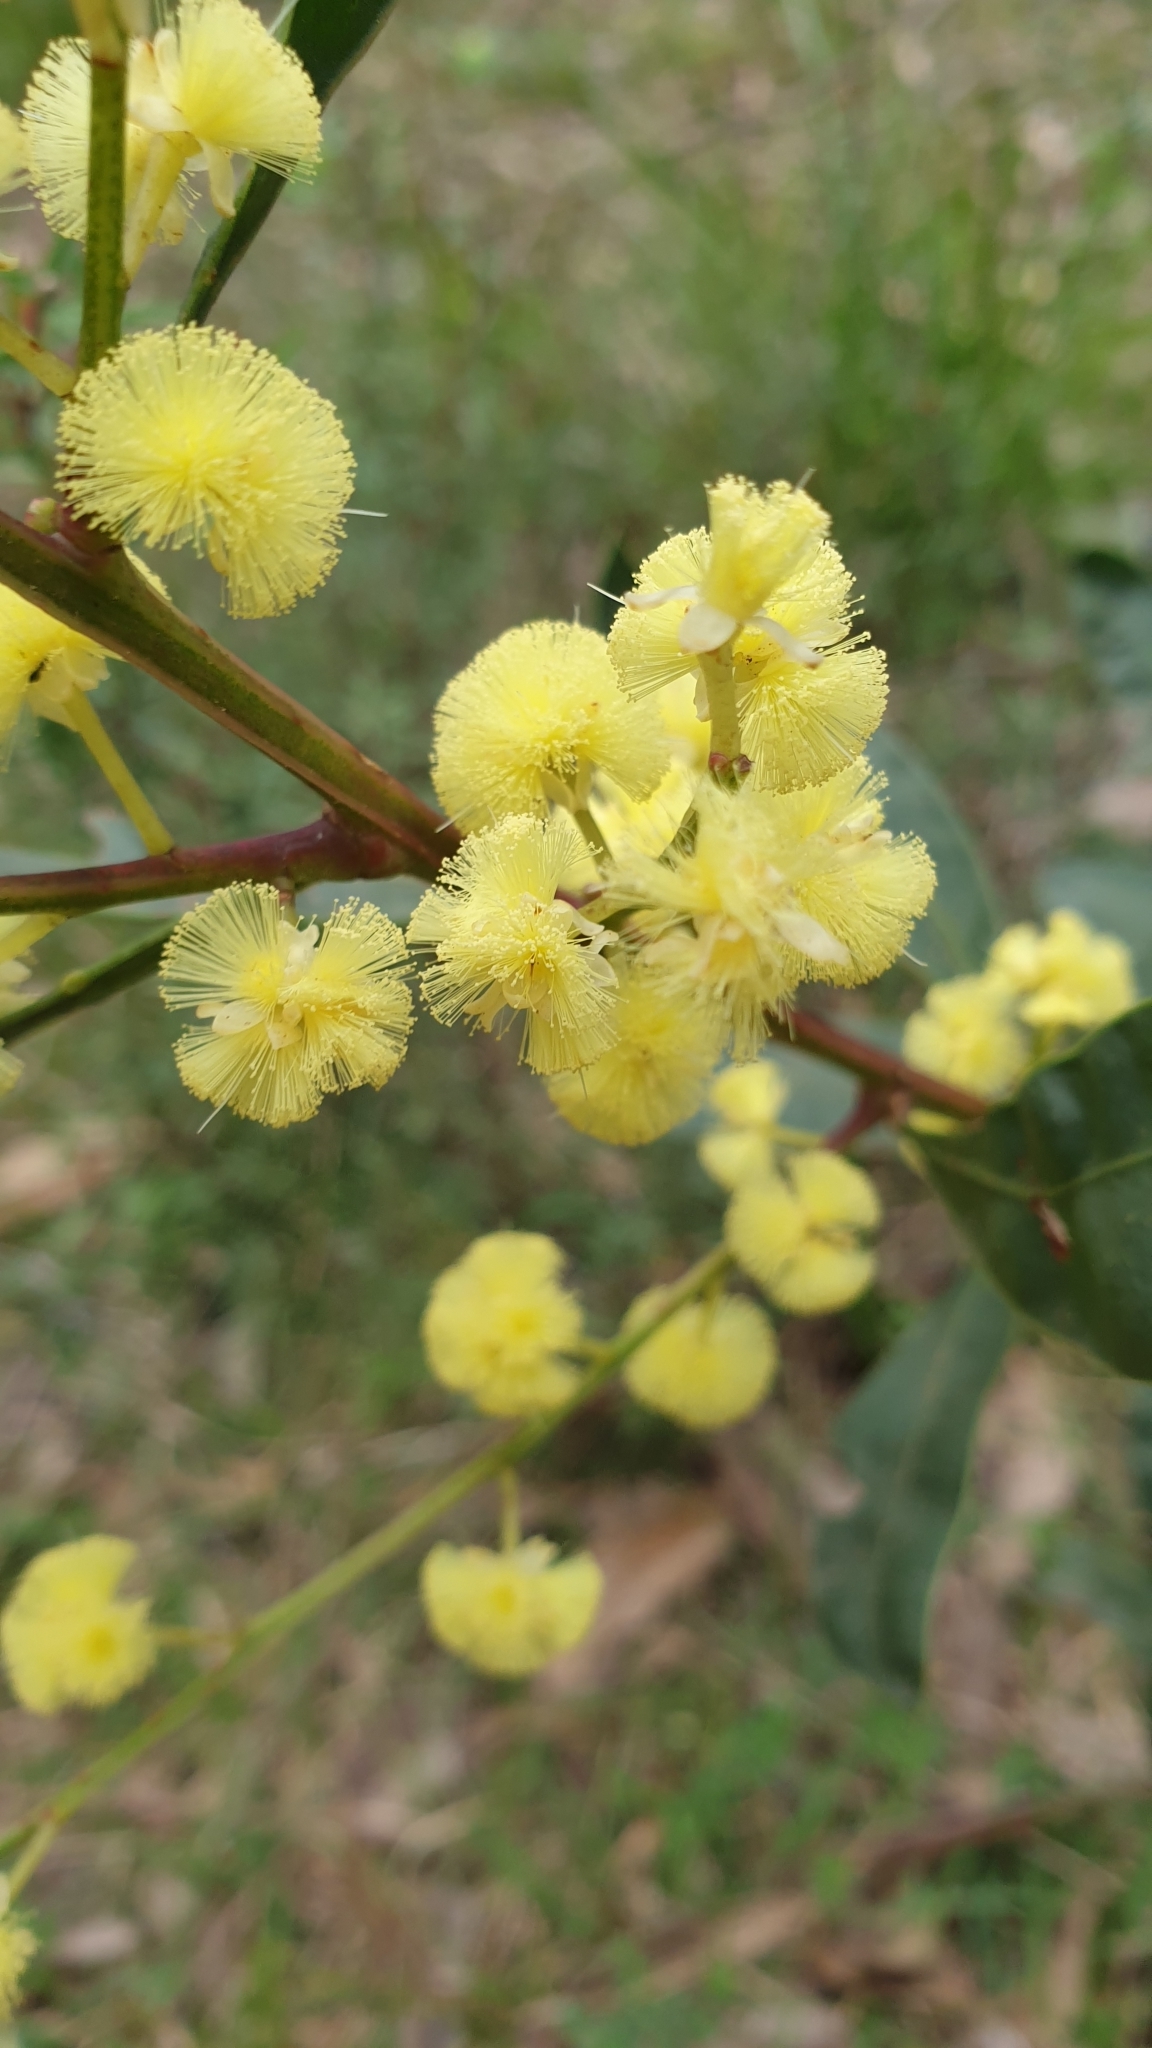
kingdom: Plantae
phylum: Tracheophyta
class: Magnoliopsida
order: Fabales
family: Fabaceae
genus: Acacia
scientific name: Acacia myrtifolia
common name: Myrtle wattle
